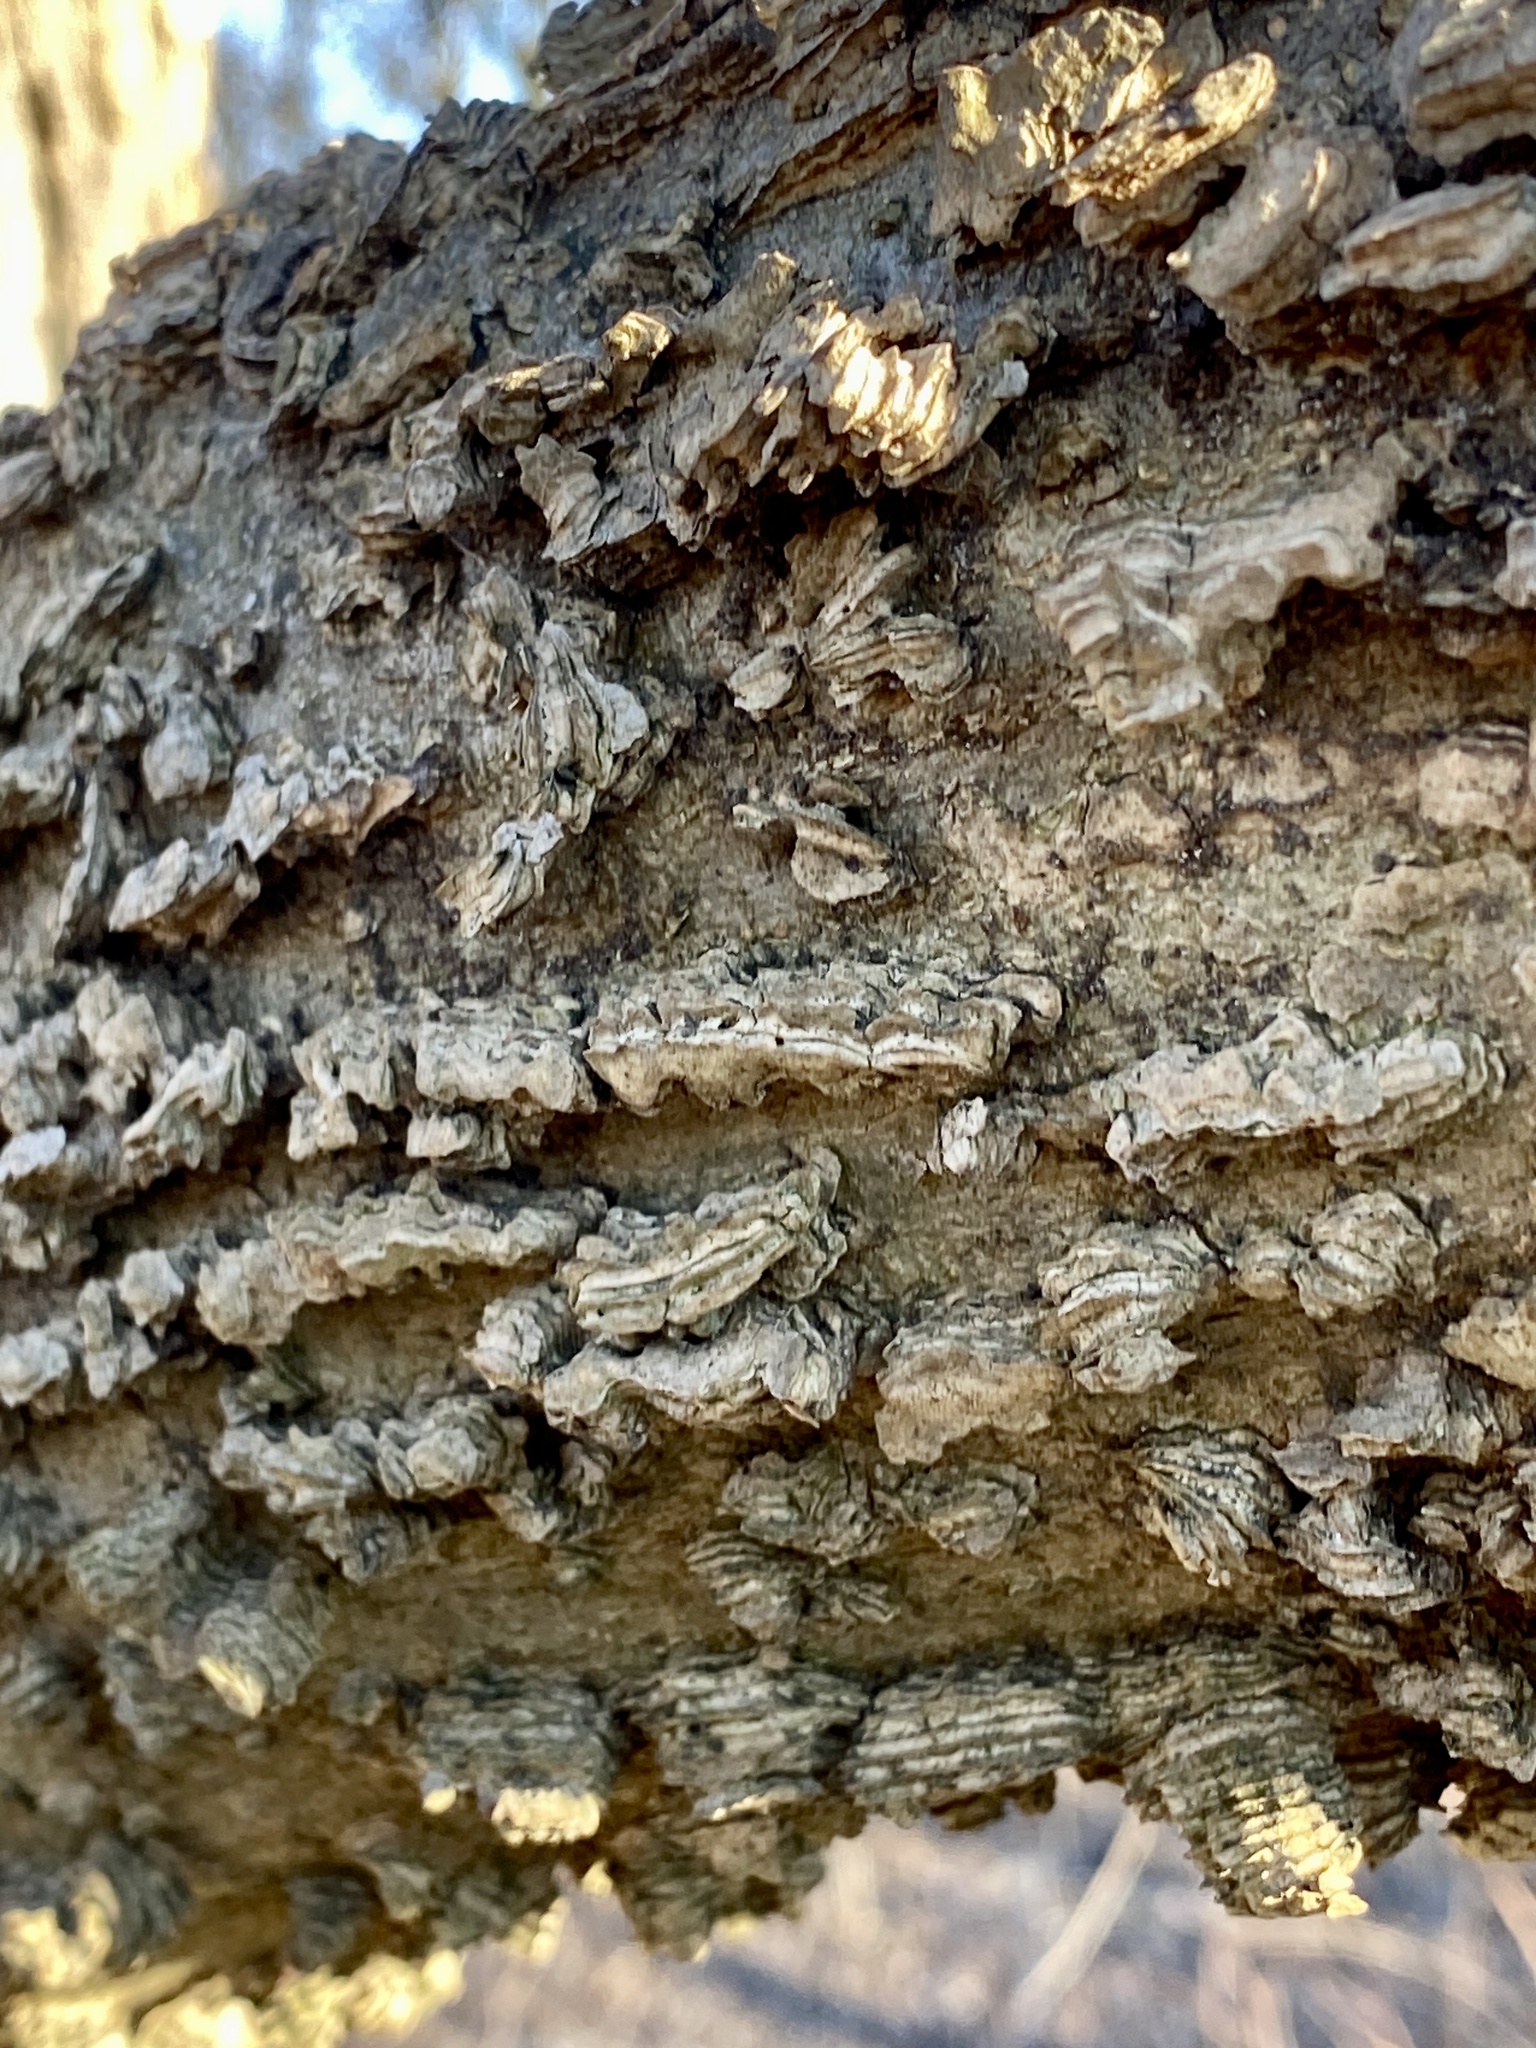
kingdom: Plantae
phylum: Tracheophyta
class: Magnoliopsida
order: Rosales
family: Cannabaceae
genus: Celtis
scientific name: Celtis occidentalis
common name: Common hackberry
